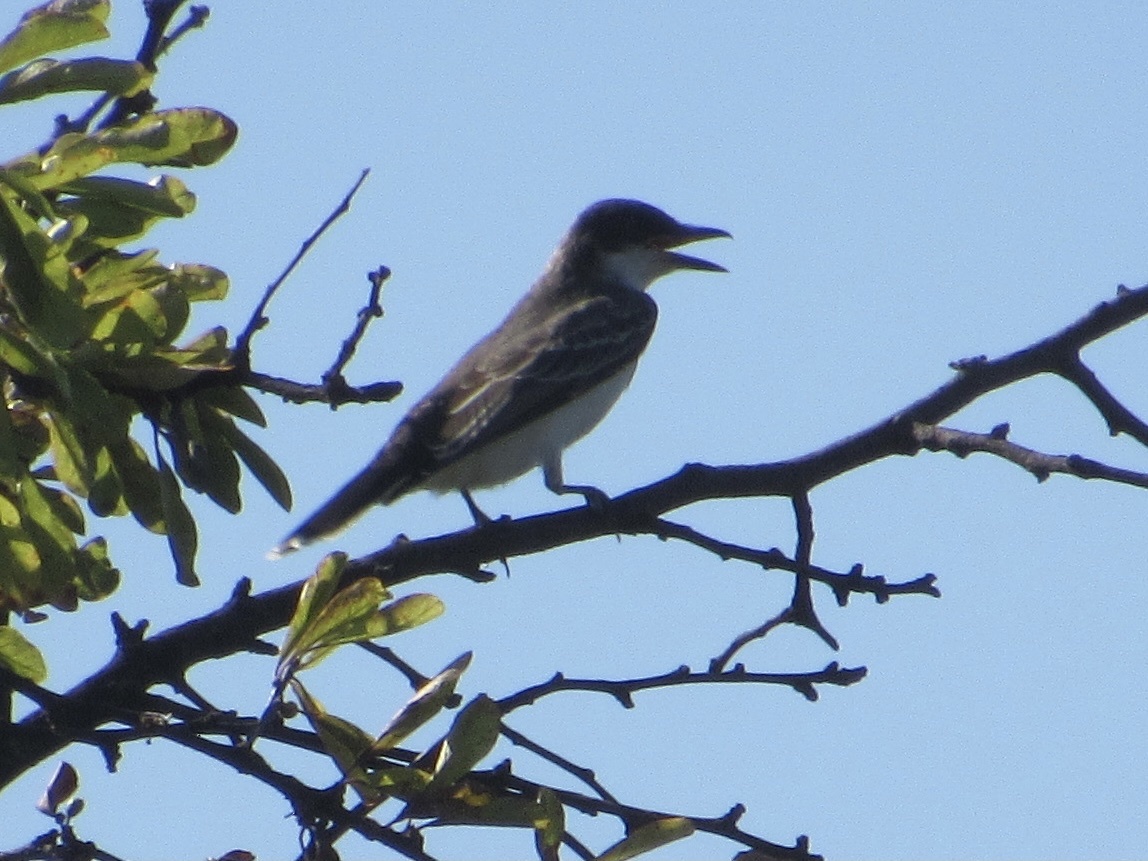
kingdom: Animalia
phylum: Chordata
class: Aves
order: Passeriformes
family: Tyrannidae
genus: Tyrannus
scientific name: Tyrannus tyrannus
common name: Eastern kingbird
